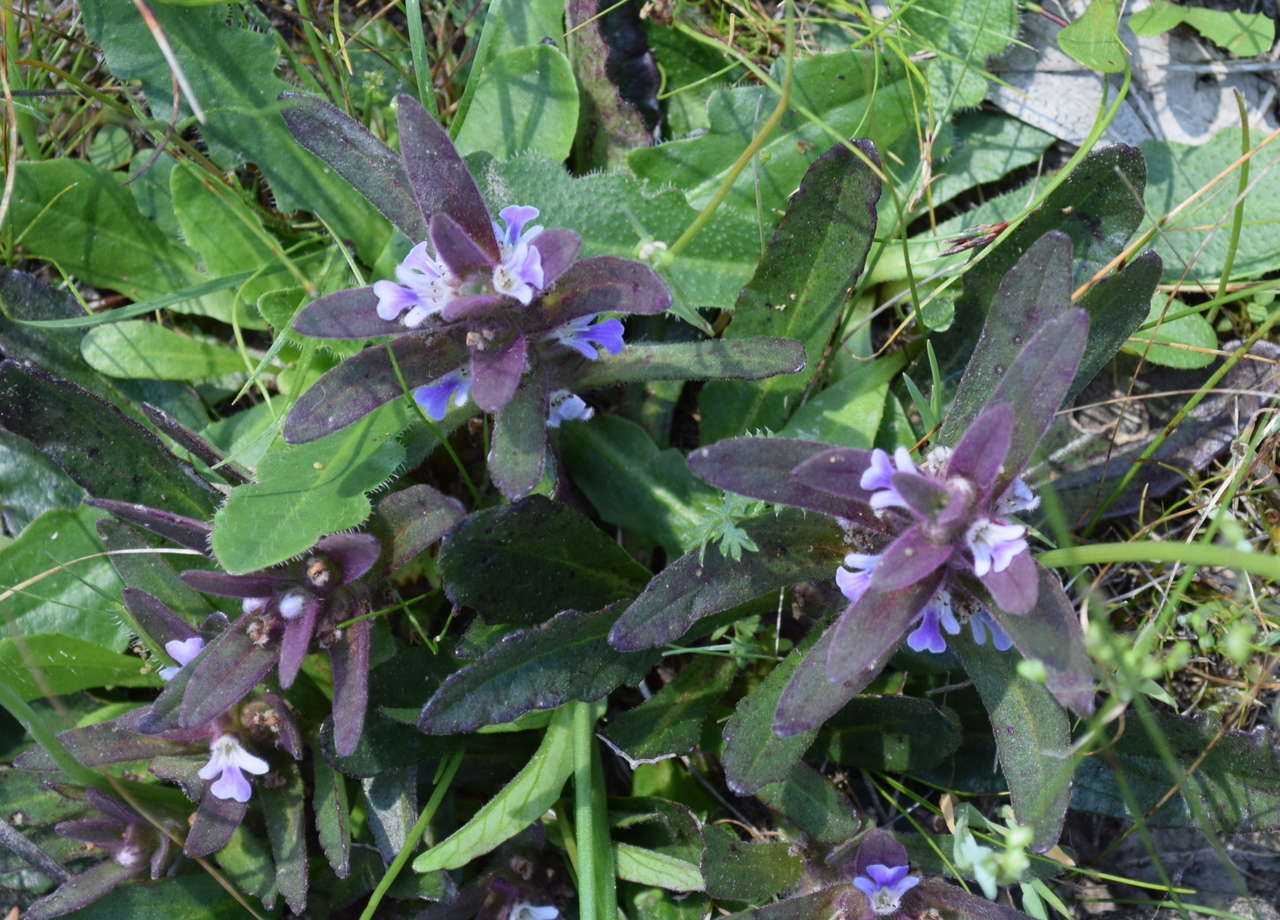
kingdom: Plantae
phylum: Tracheophyta
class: Magnoliopsida
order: Lamiales
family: Lamiaceae
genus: Ajuga
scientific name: Ajuga australis
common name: Australian bugle
